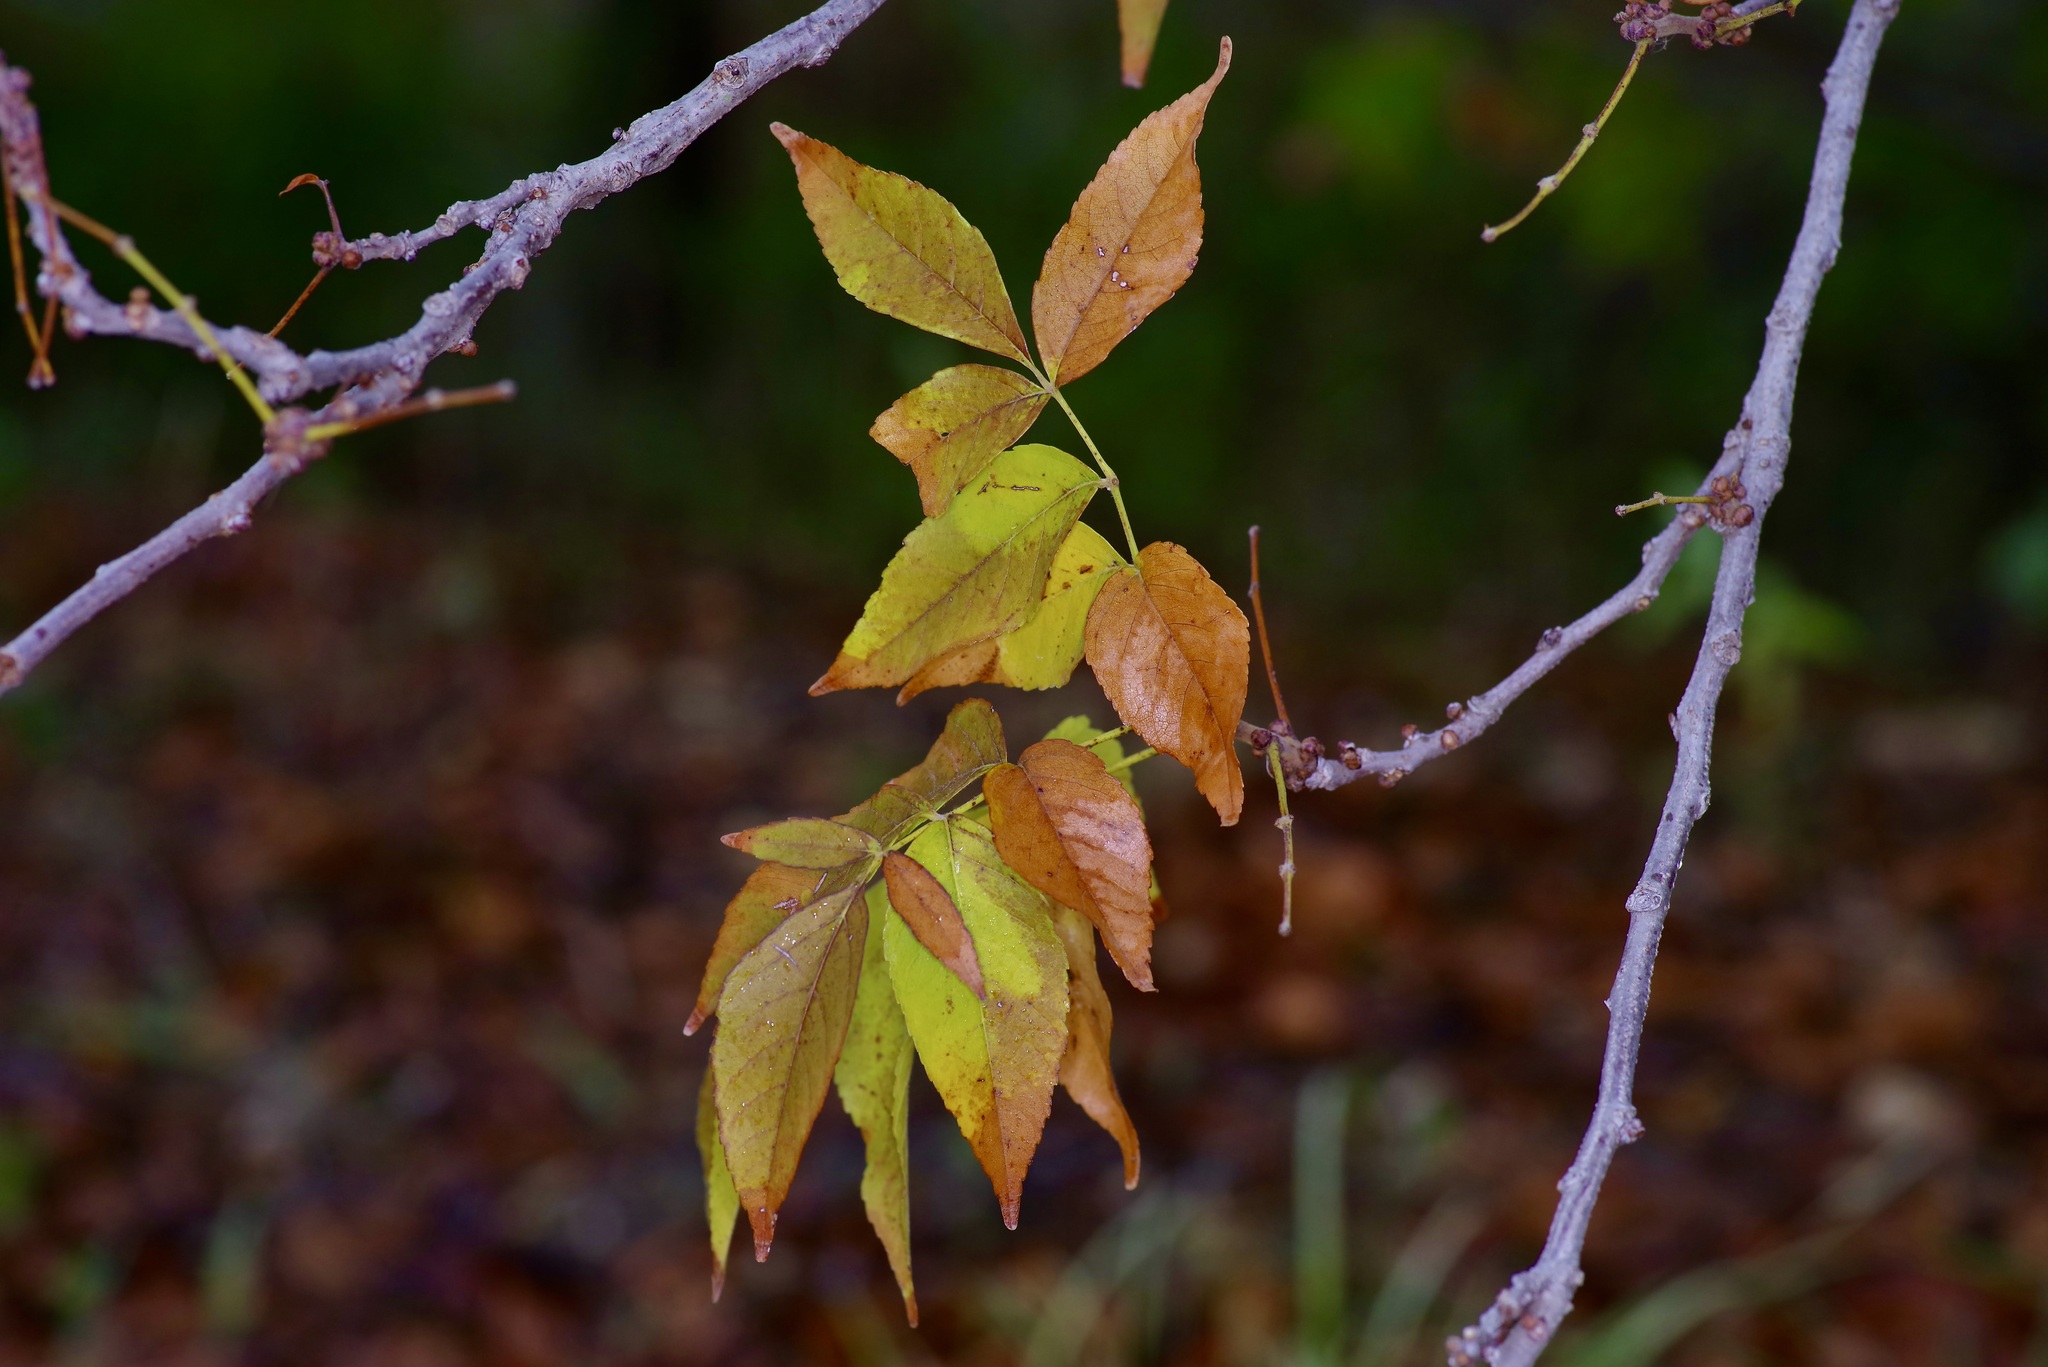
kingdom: Plantae
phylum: Tracheophyta
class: Magnoliopsida
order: Sapindales
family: Sapindaceae
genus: Ungnadia
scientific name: Ungnadia speciosa
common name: Texas-buckeye
